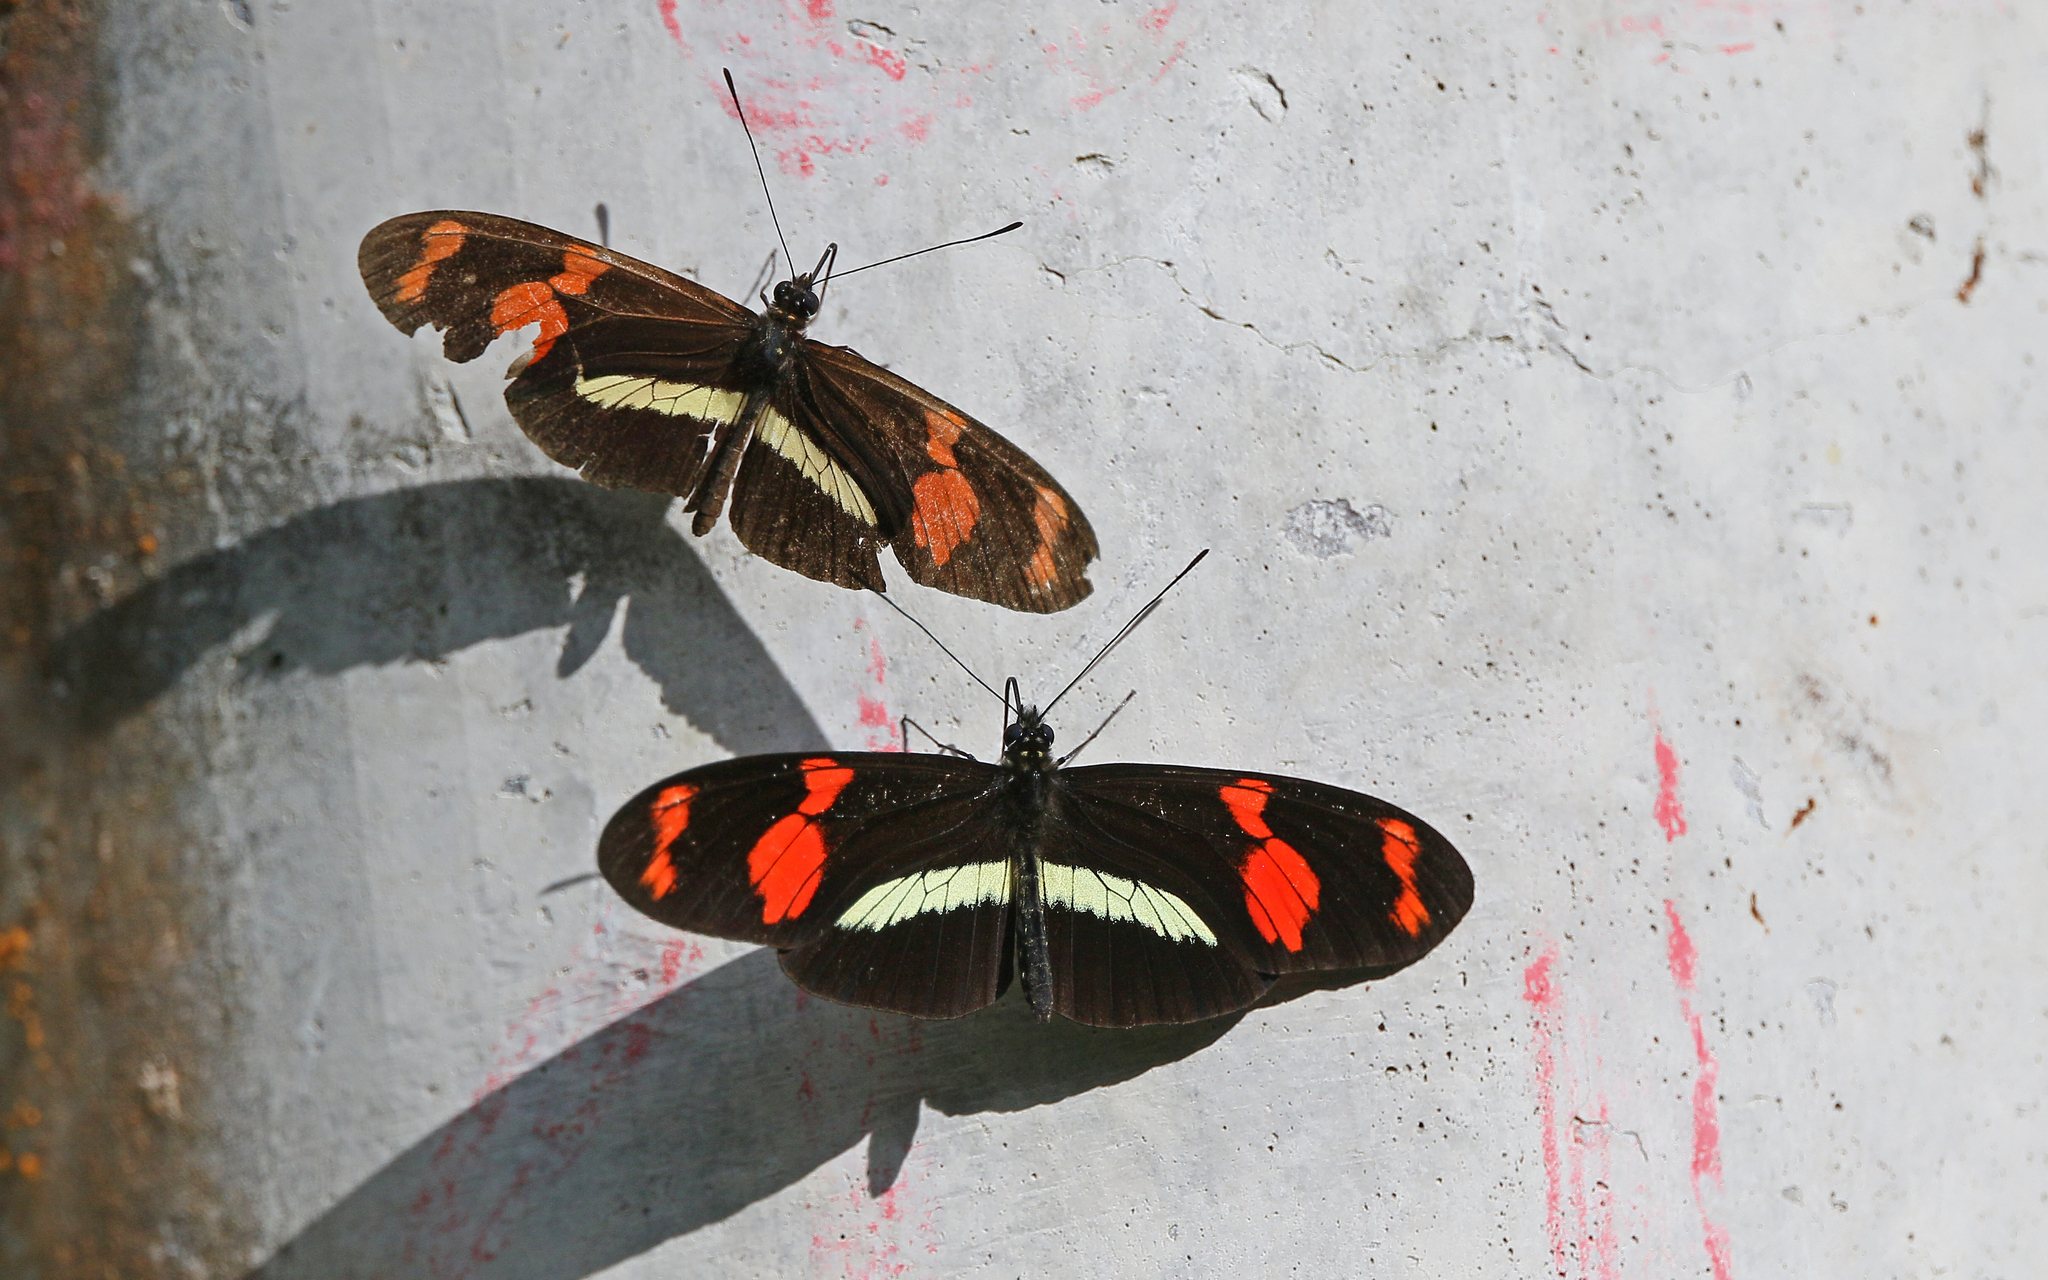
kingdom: Animalia
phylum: Arthropoda
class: Insecta
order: Lepidoptera
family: Nymphalidae
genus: Heliconius
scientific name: Heliconius telesiphe
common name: Telesiphe longwing
